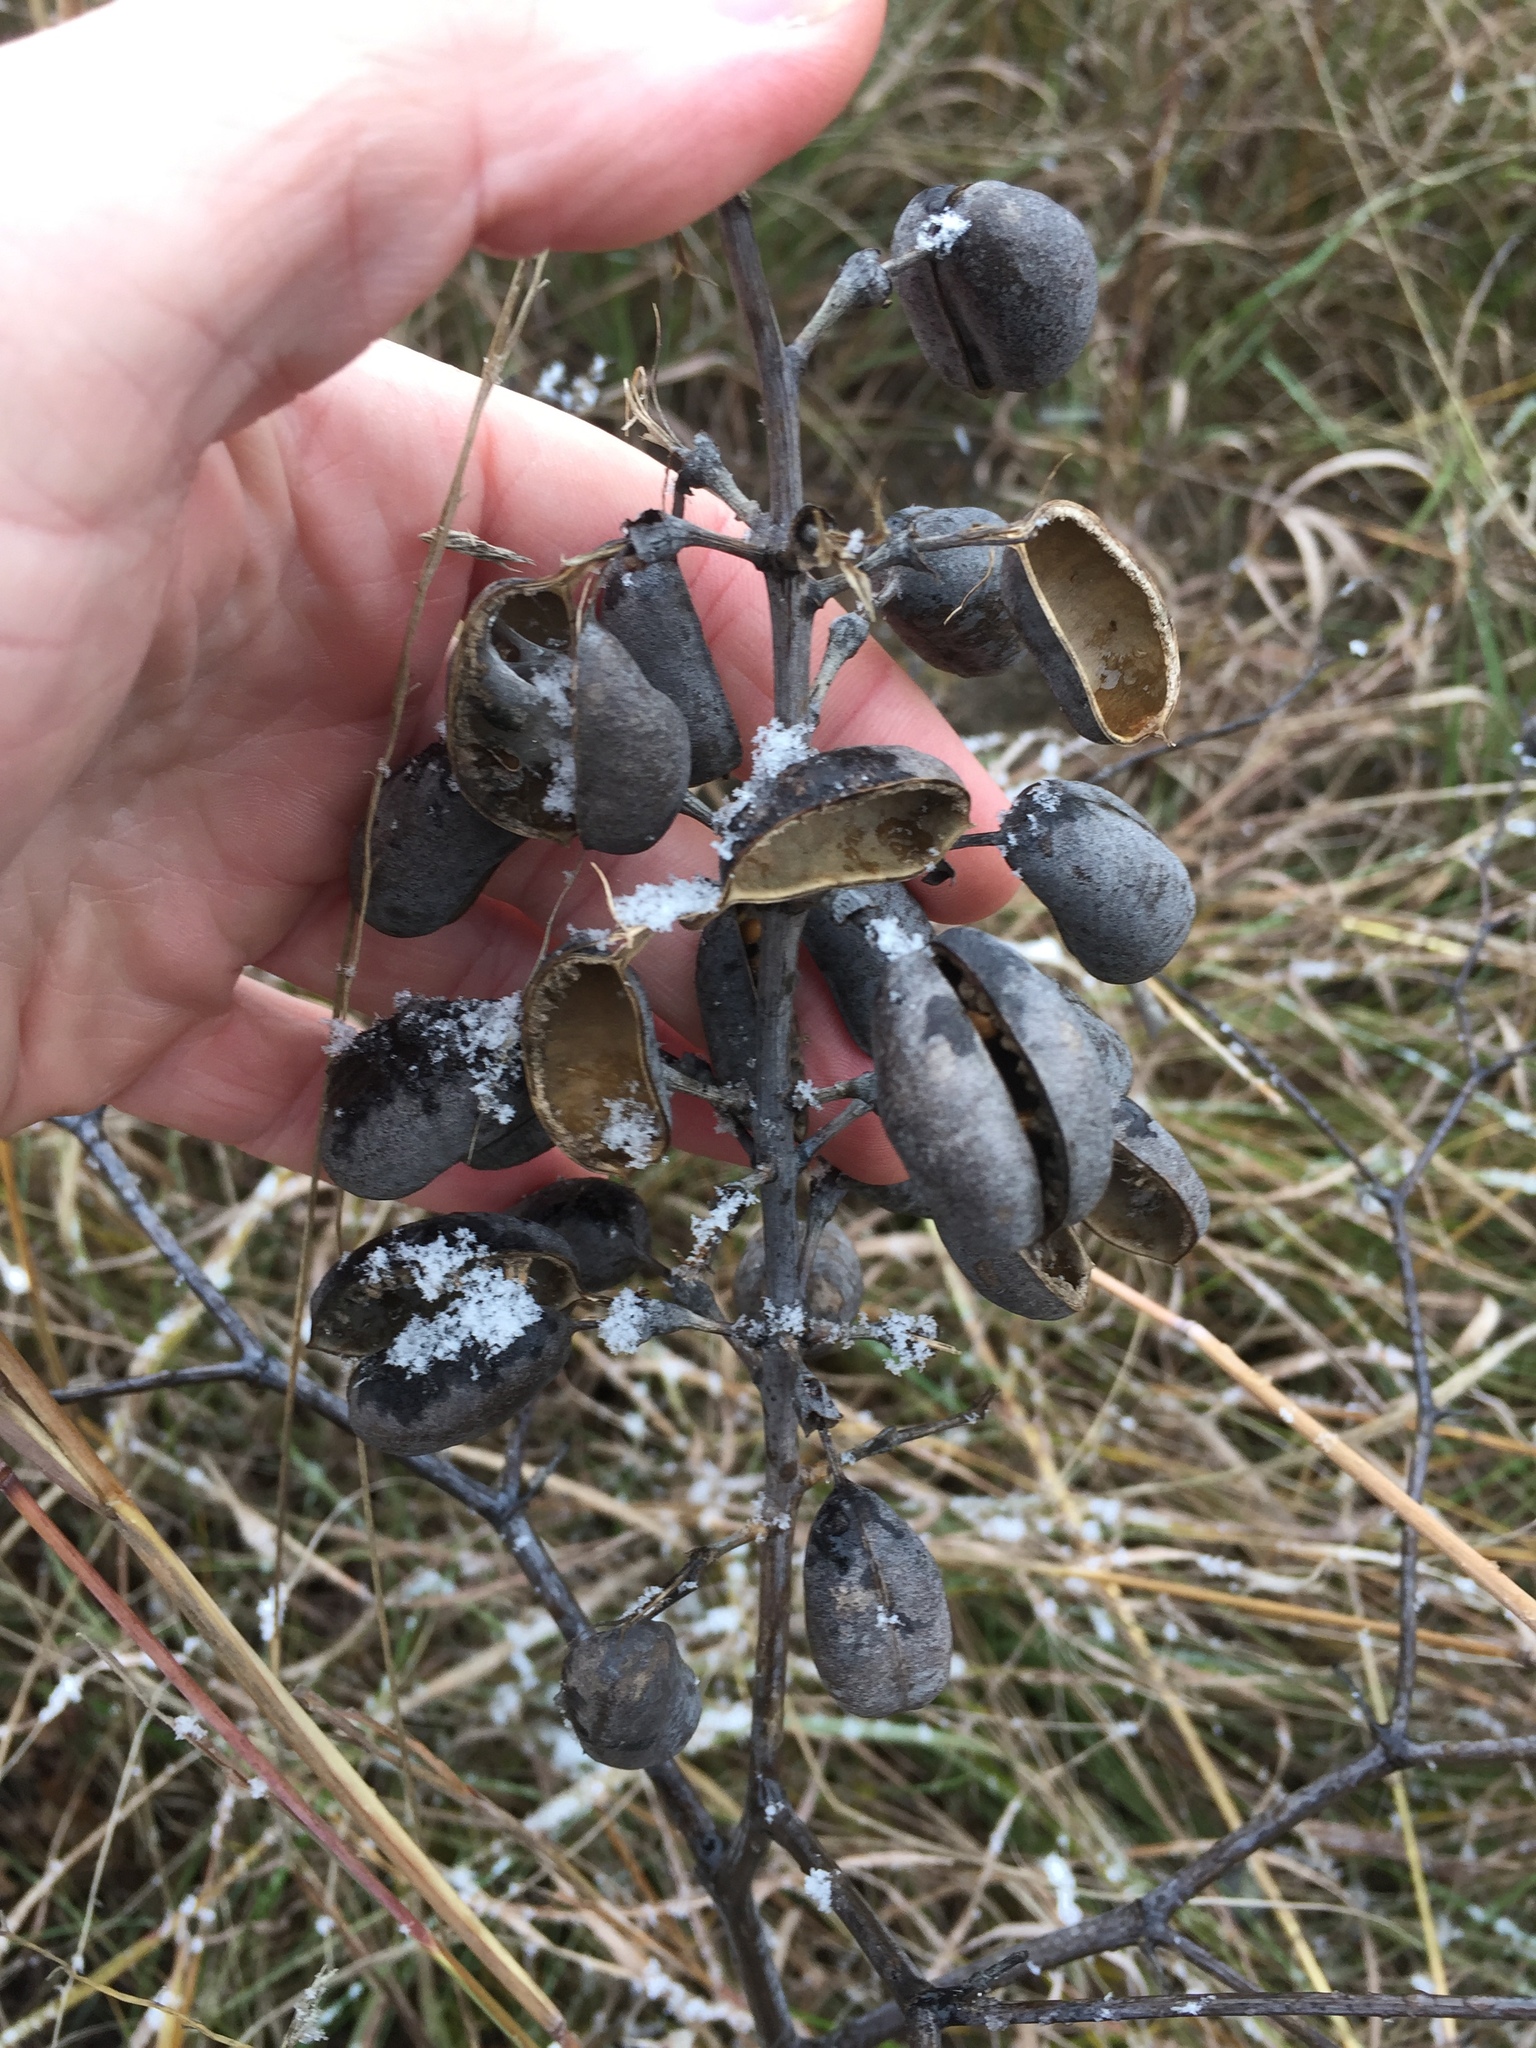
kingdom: Plantae
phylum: Tracheophyta
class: Magnoliopsida
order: Fabales
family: Fabaceae
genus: Baptisia
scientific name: Baptisia alba
